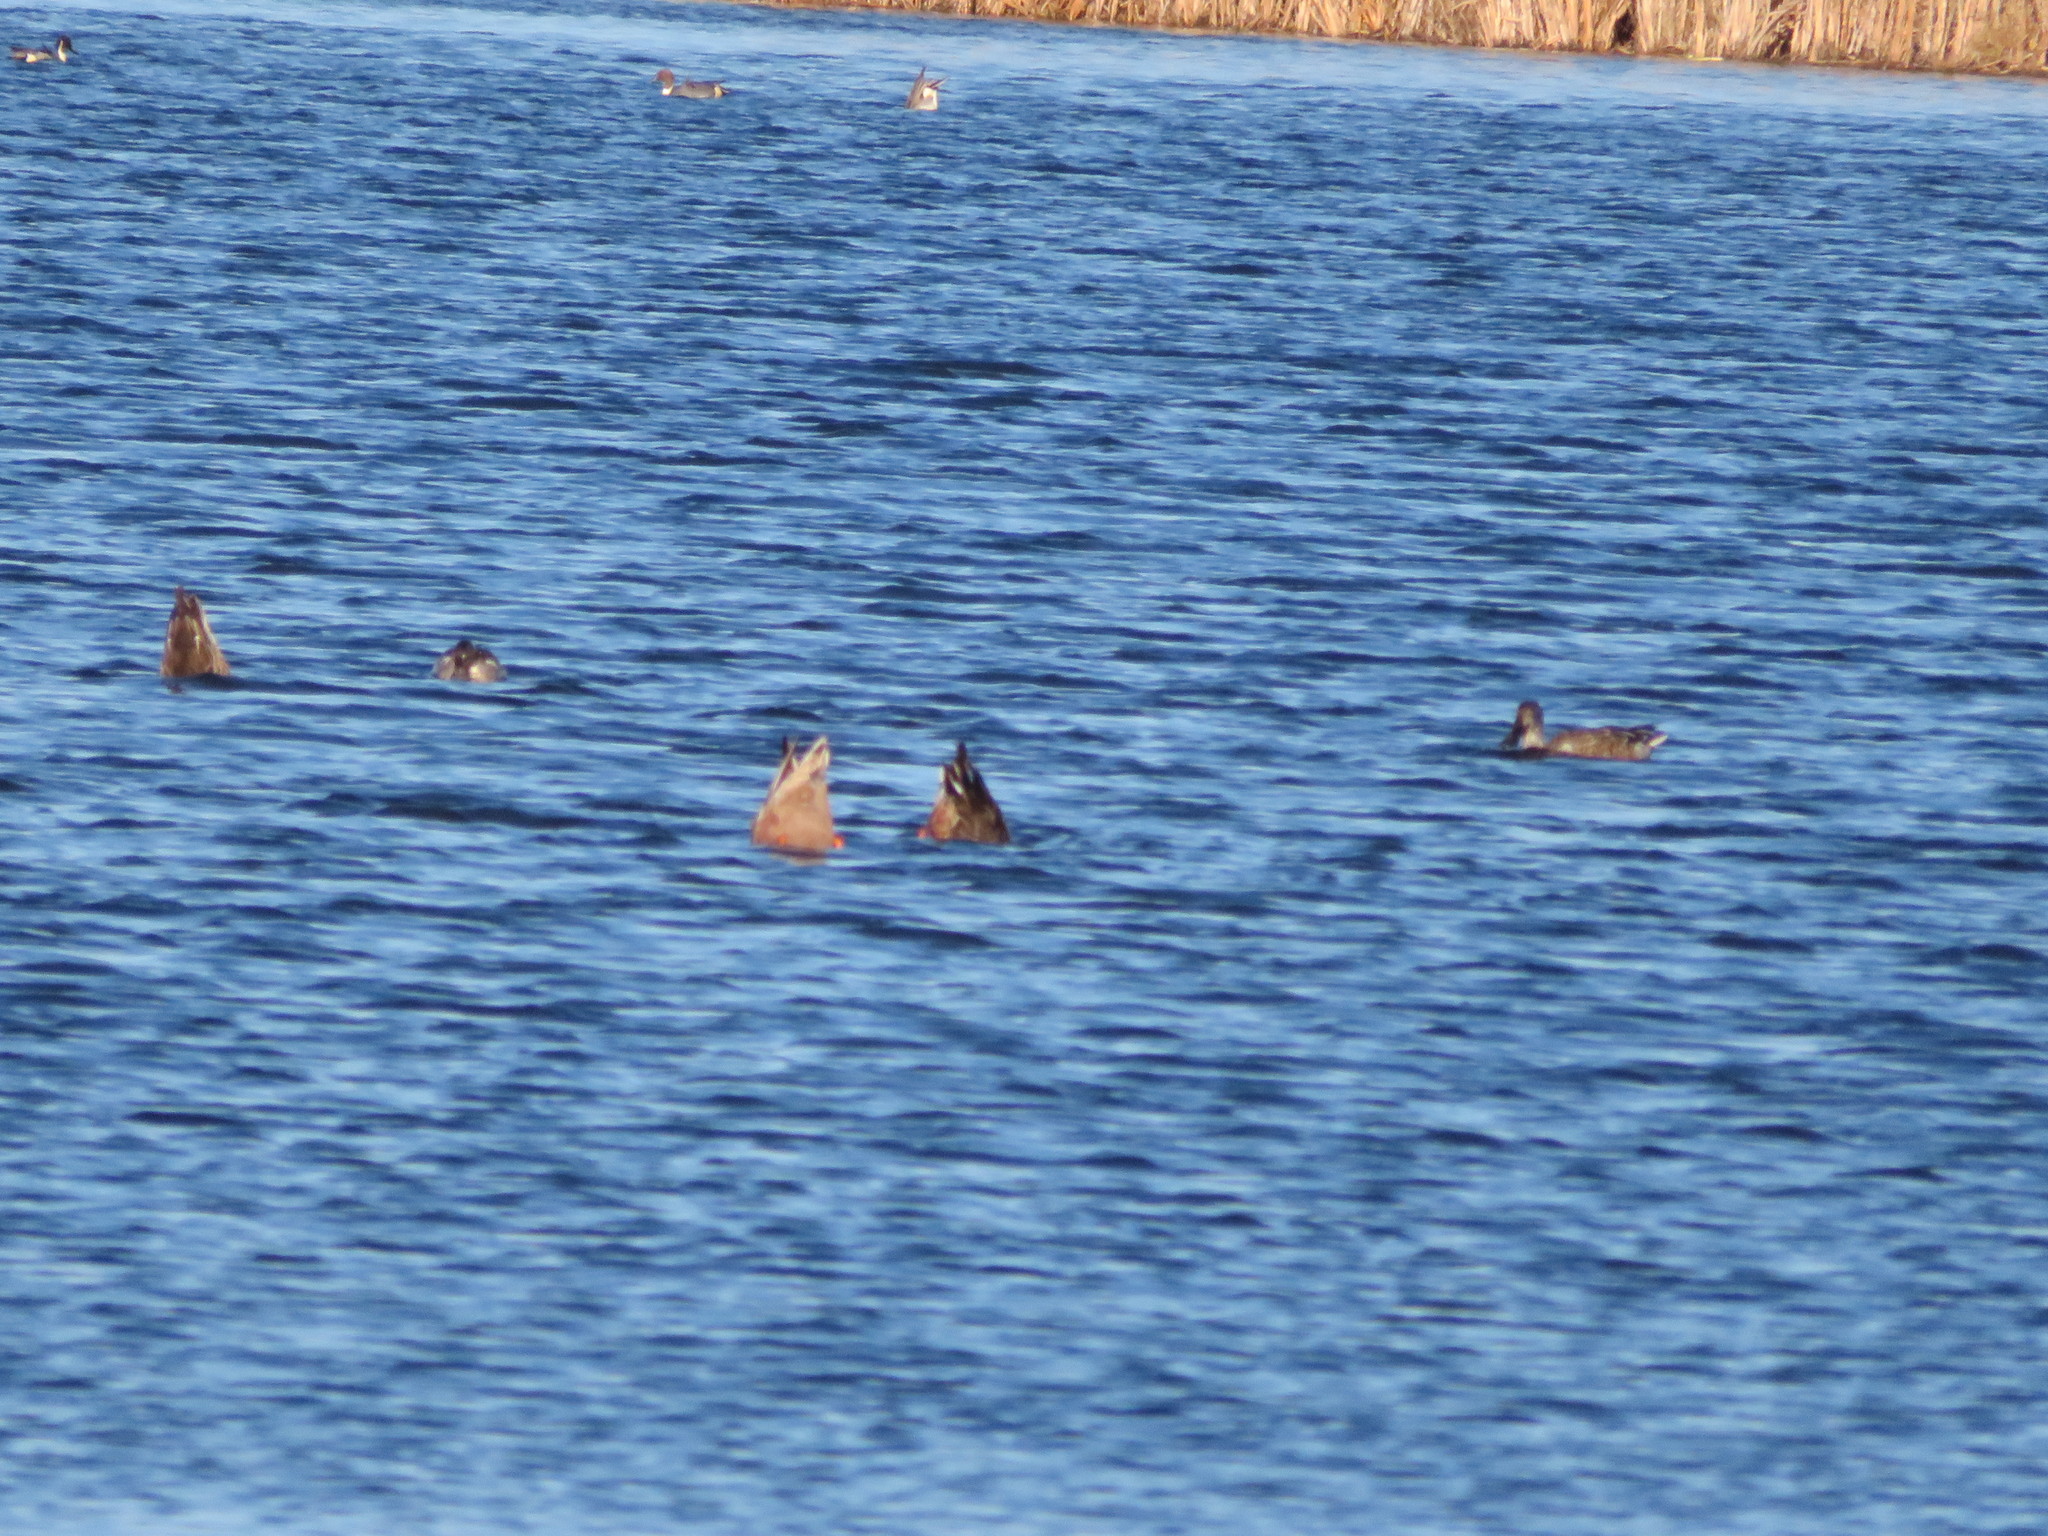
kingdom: Animalia
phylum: Chordata
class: Aves
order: Anseriformes
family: Anatidae
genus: Spatula
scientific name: Spatula clypeata
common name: Northern shoveler
